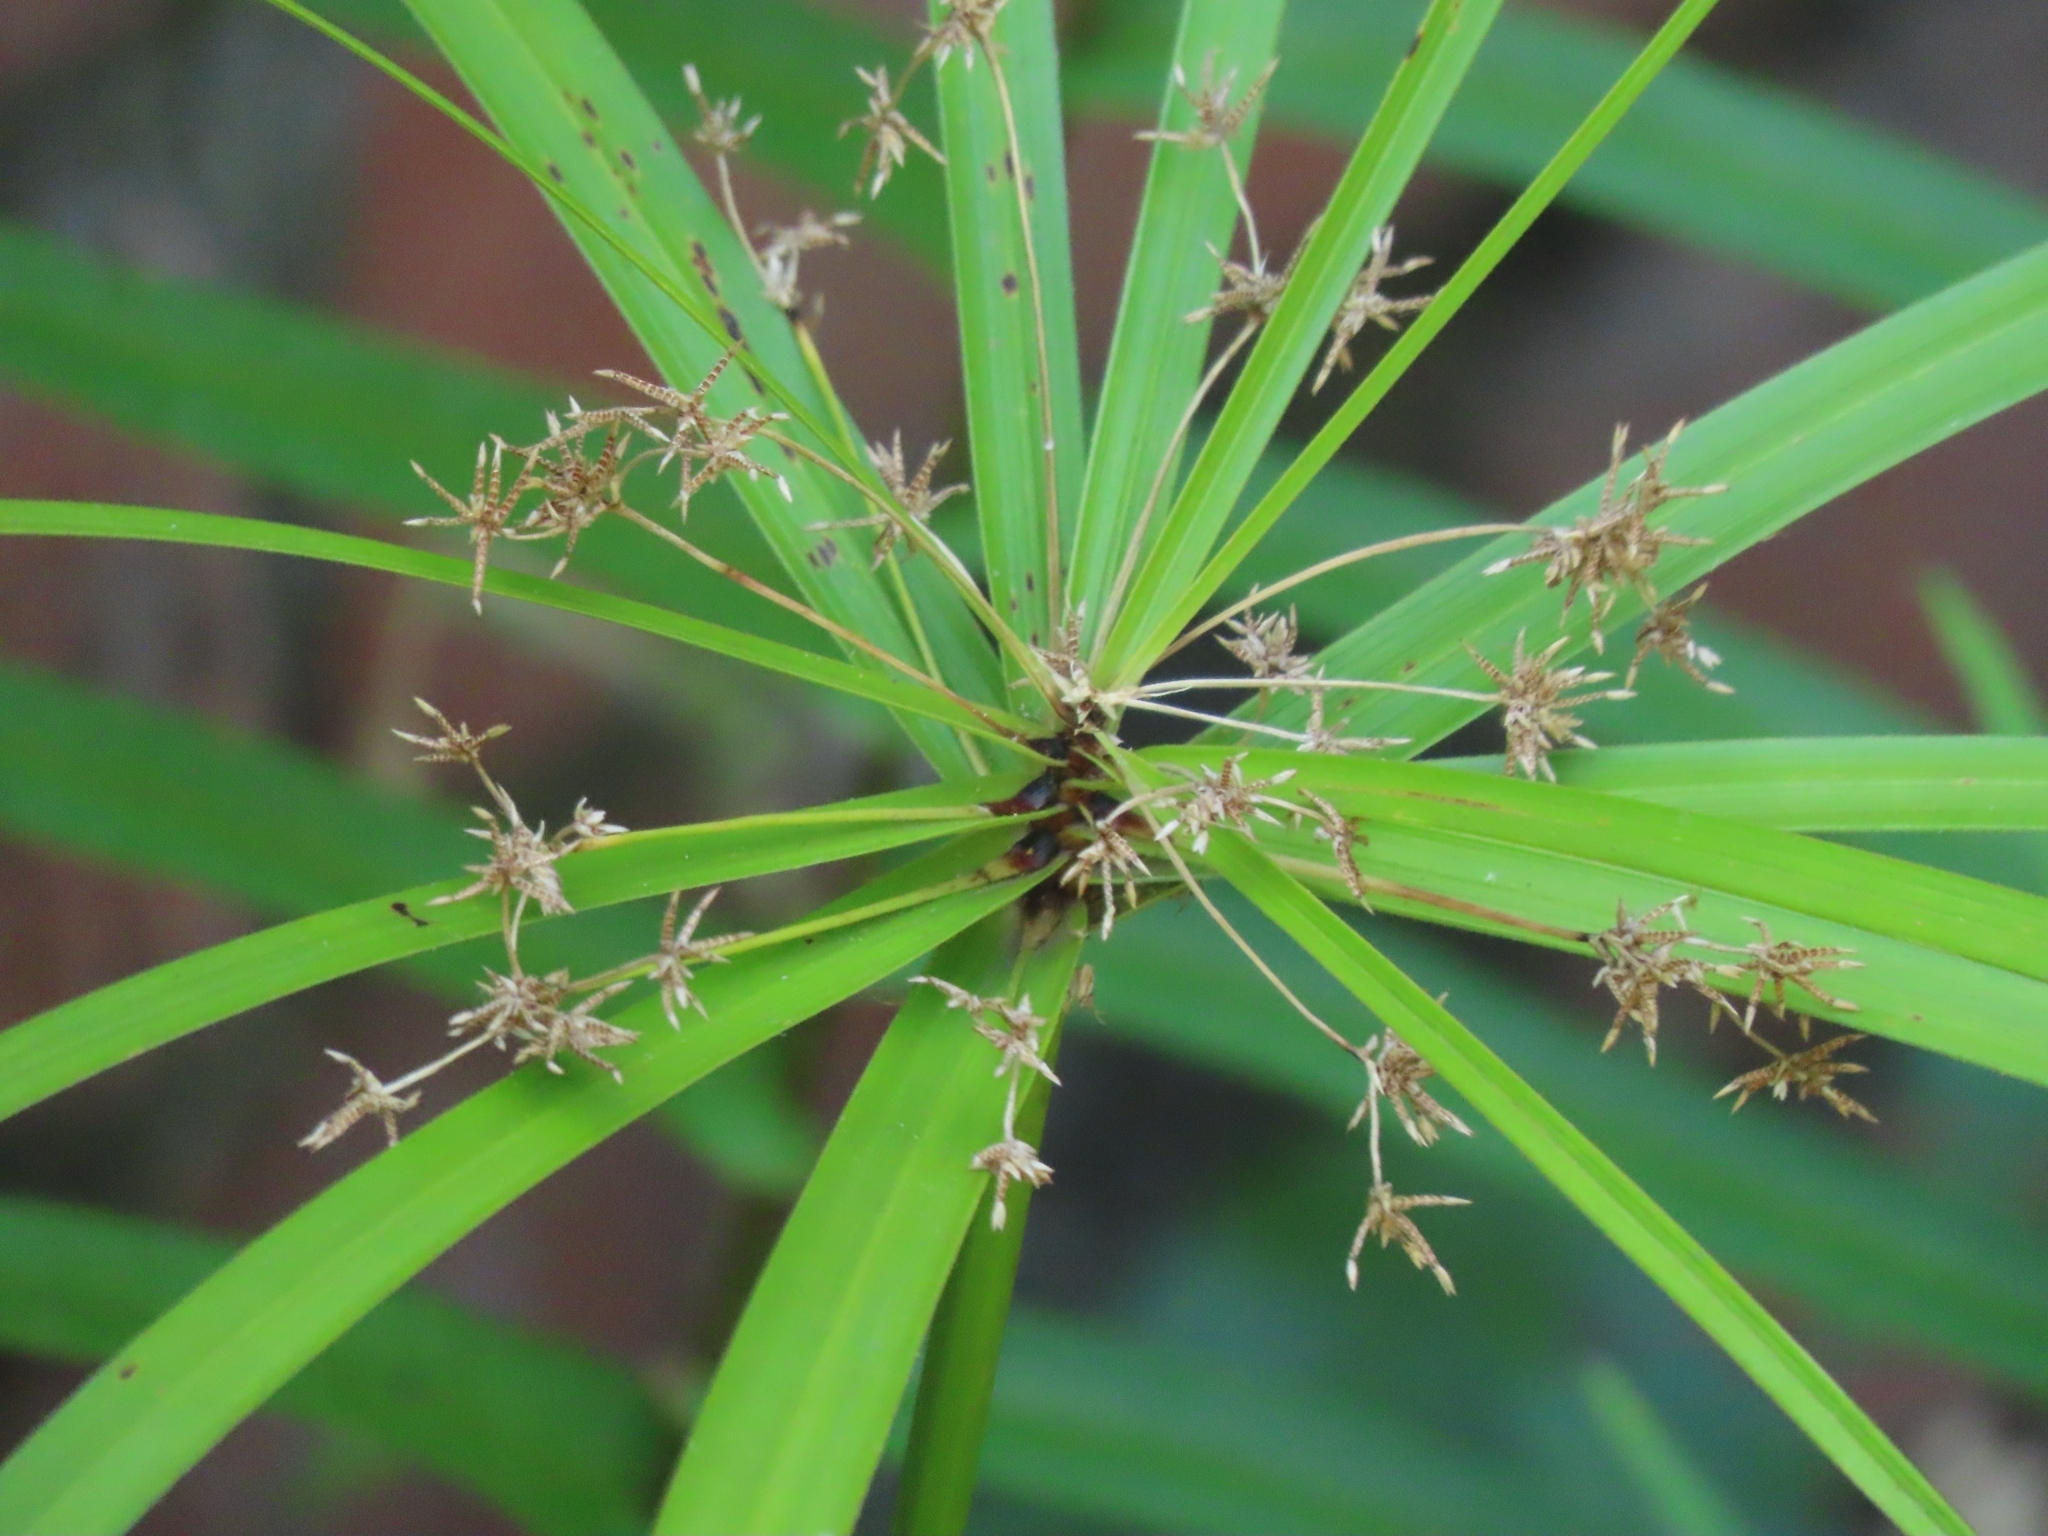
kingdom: Plantae
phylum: Tracheophyta
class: Liliopsida
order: Poales
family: Cyperaceae
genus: Cyperus
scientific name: Cyperus alternifolius
